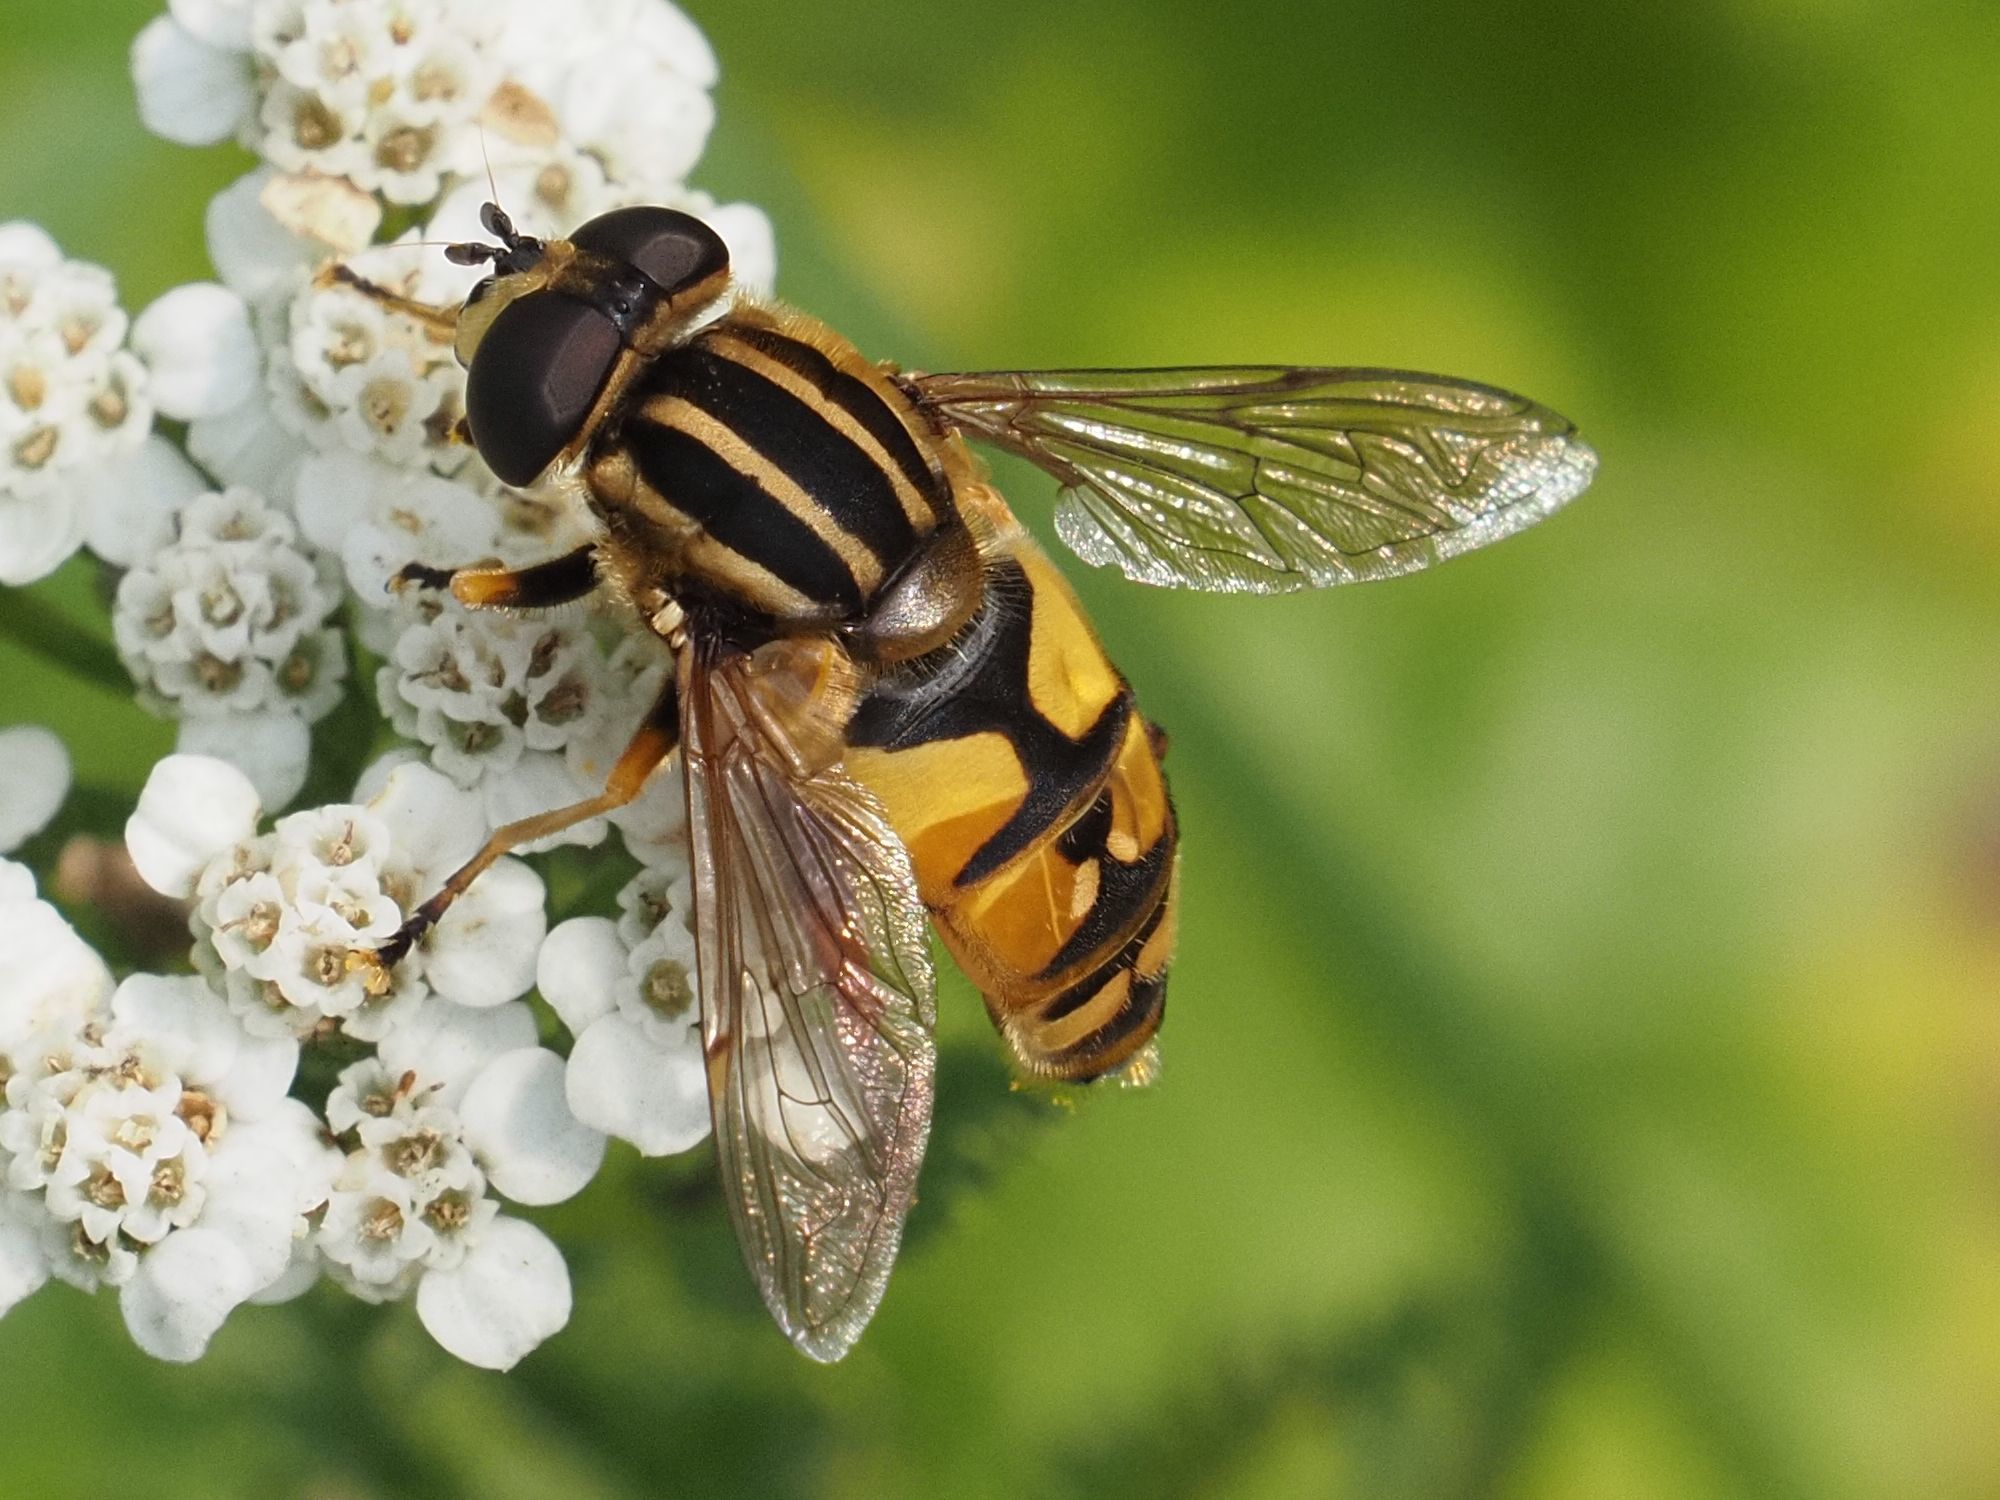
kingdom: Animalia
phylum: Arthropoda
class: Insecta
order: Diptera
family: Syrphidae
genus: Helophilus
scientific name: Helophilus pendulus
